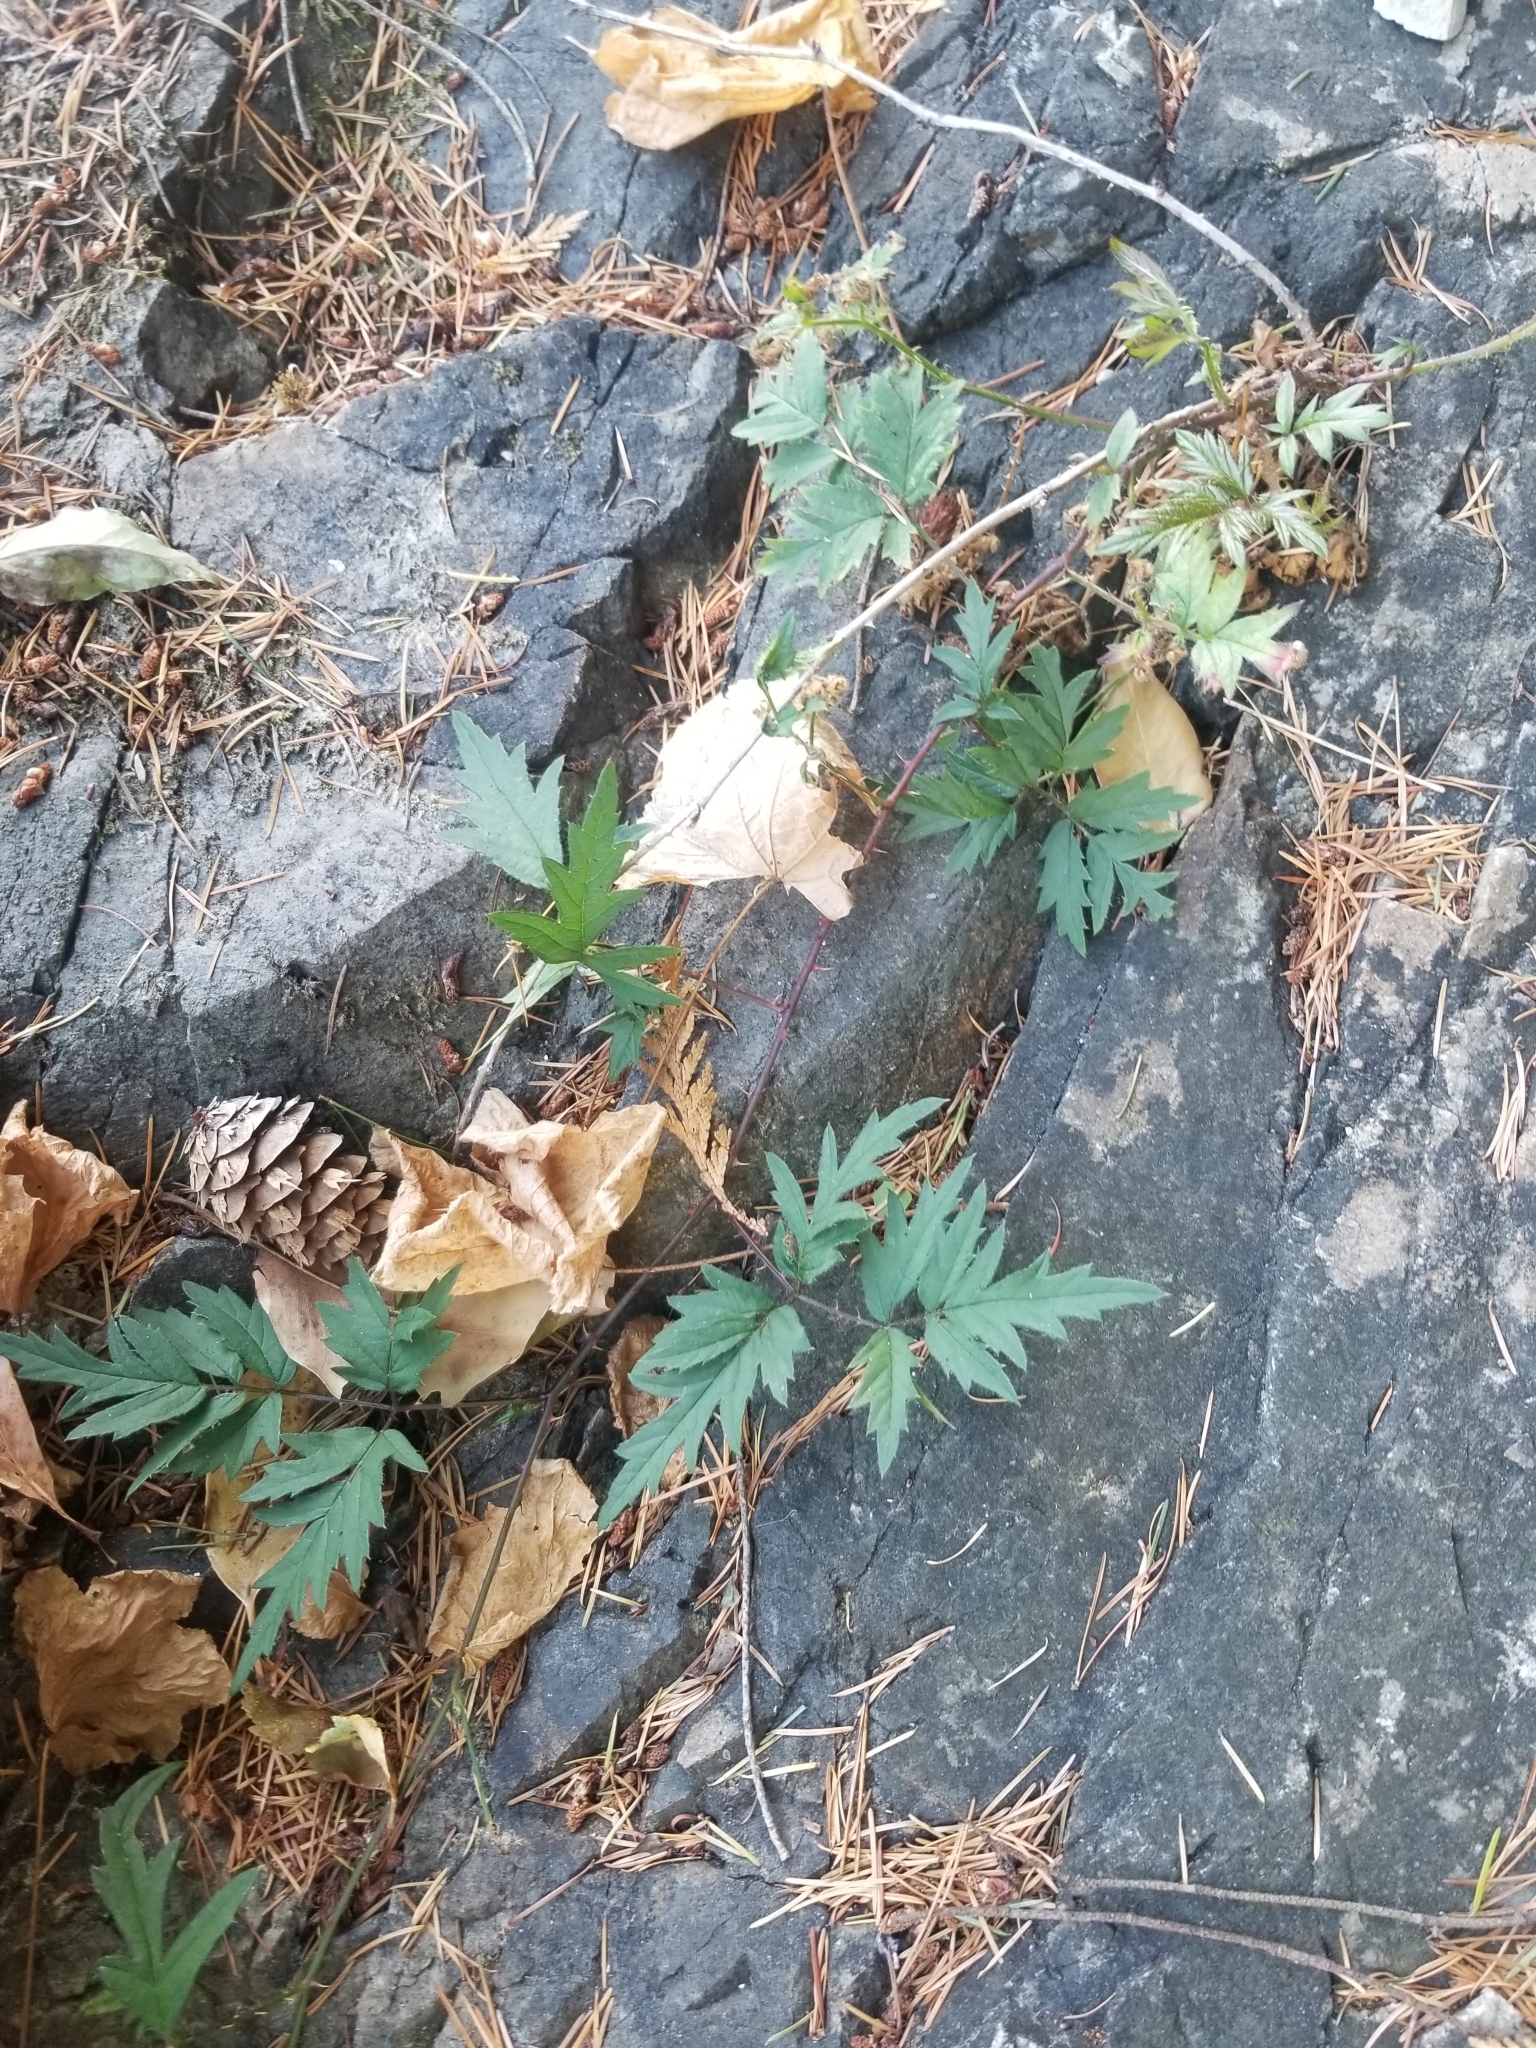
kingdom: Plantae
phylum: Tracheophyta
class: Magnoliopsida
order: Rosales
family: Rosaceae
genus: Rubus
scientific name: Rubus laciniatus
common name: Evergreen blackberry
